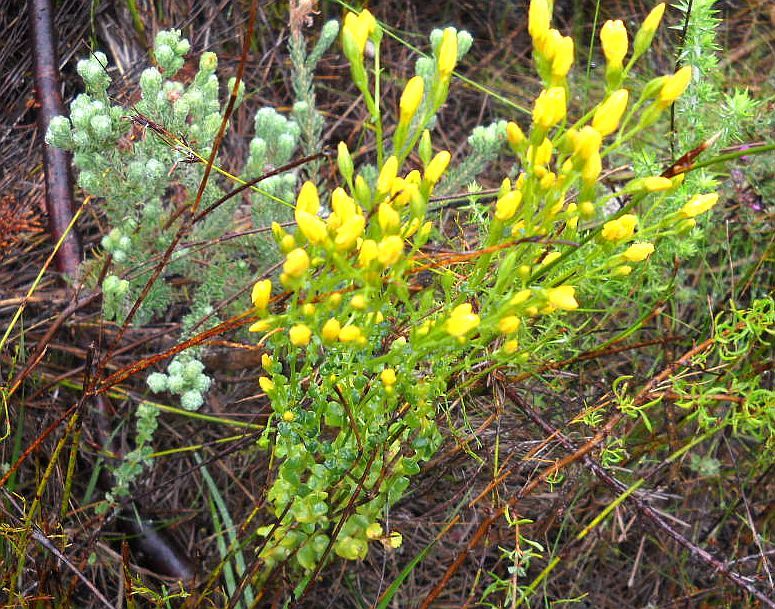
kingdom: Plantae
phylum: Tracheophyta
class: Magnoliopsida
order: Gentianales
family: Gentianaceae
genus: Sebaea
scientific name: Sebaea laxa
